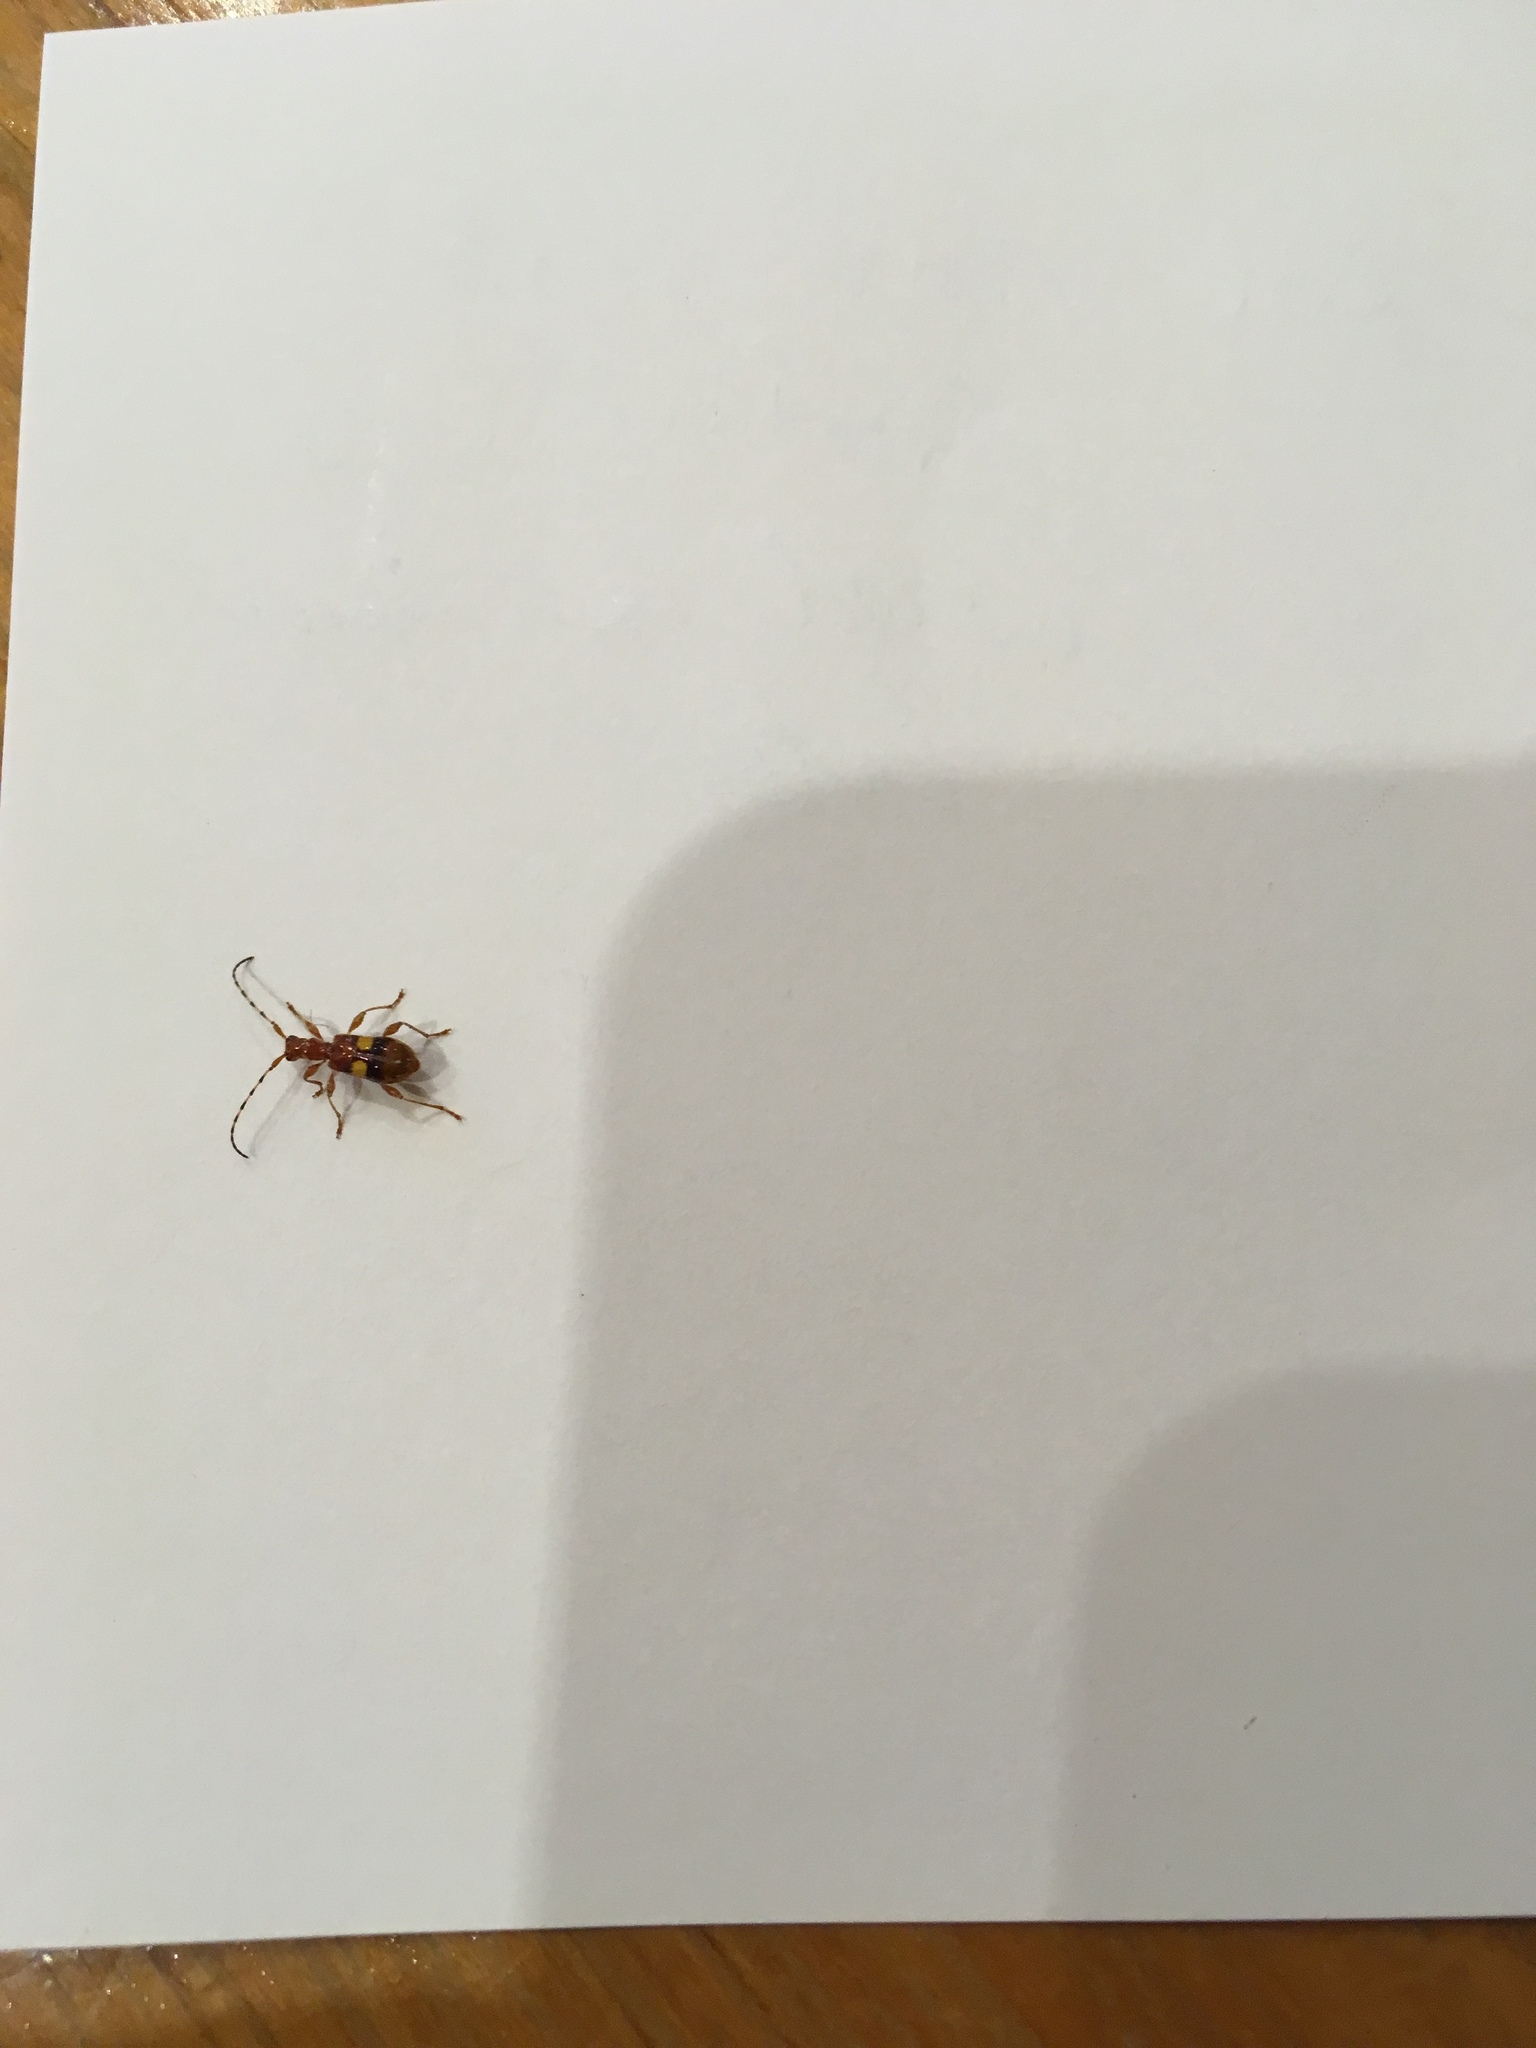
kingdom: Animalia
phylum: Arthropoda
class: Insecta
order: Coleoptera
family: Cerambycidae
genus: Zorion
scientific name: Zorion australe
